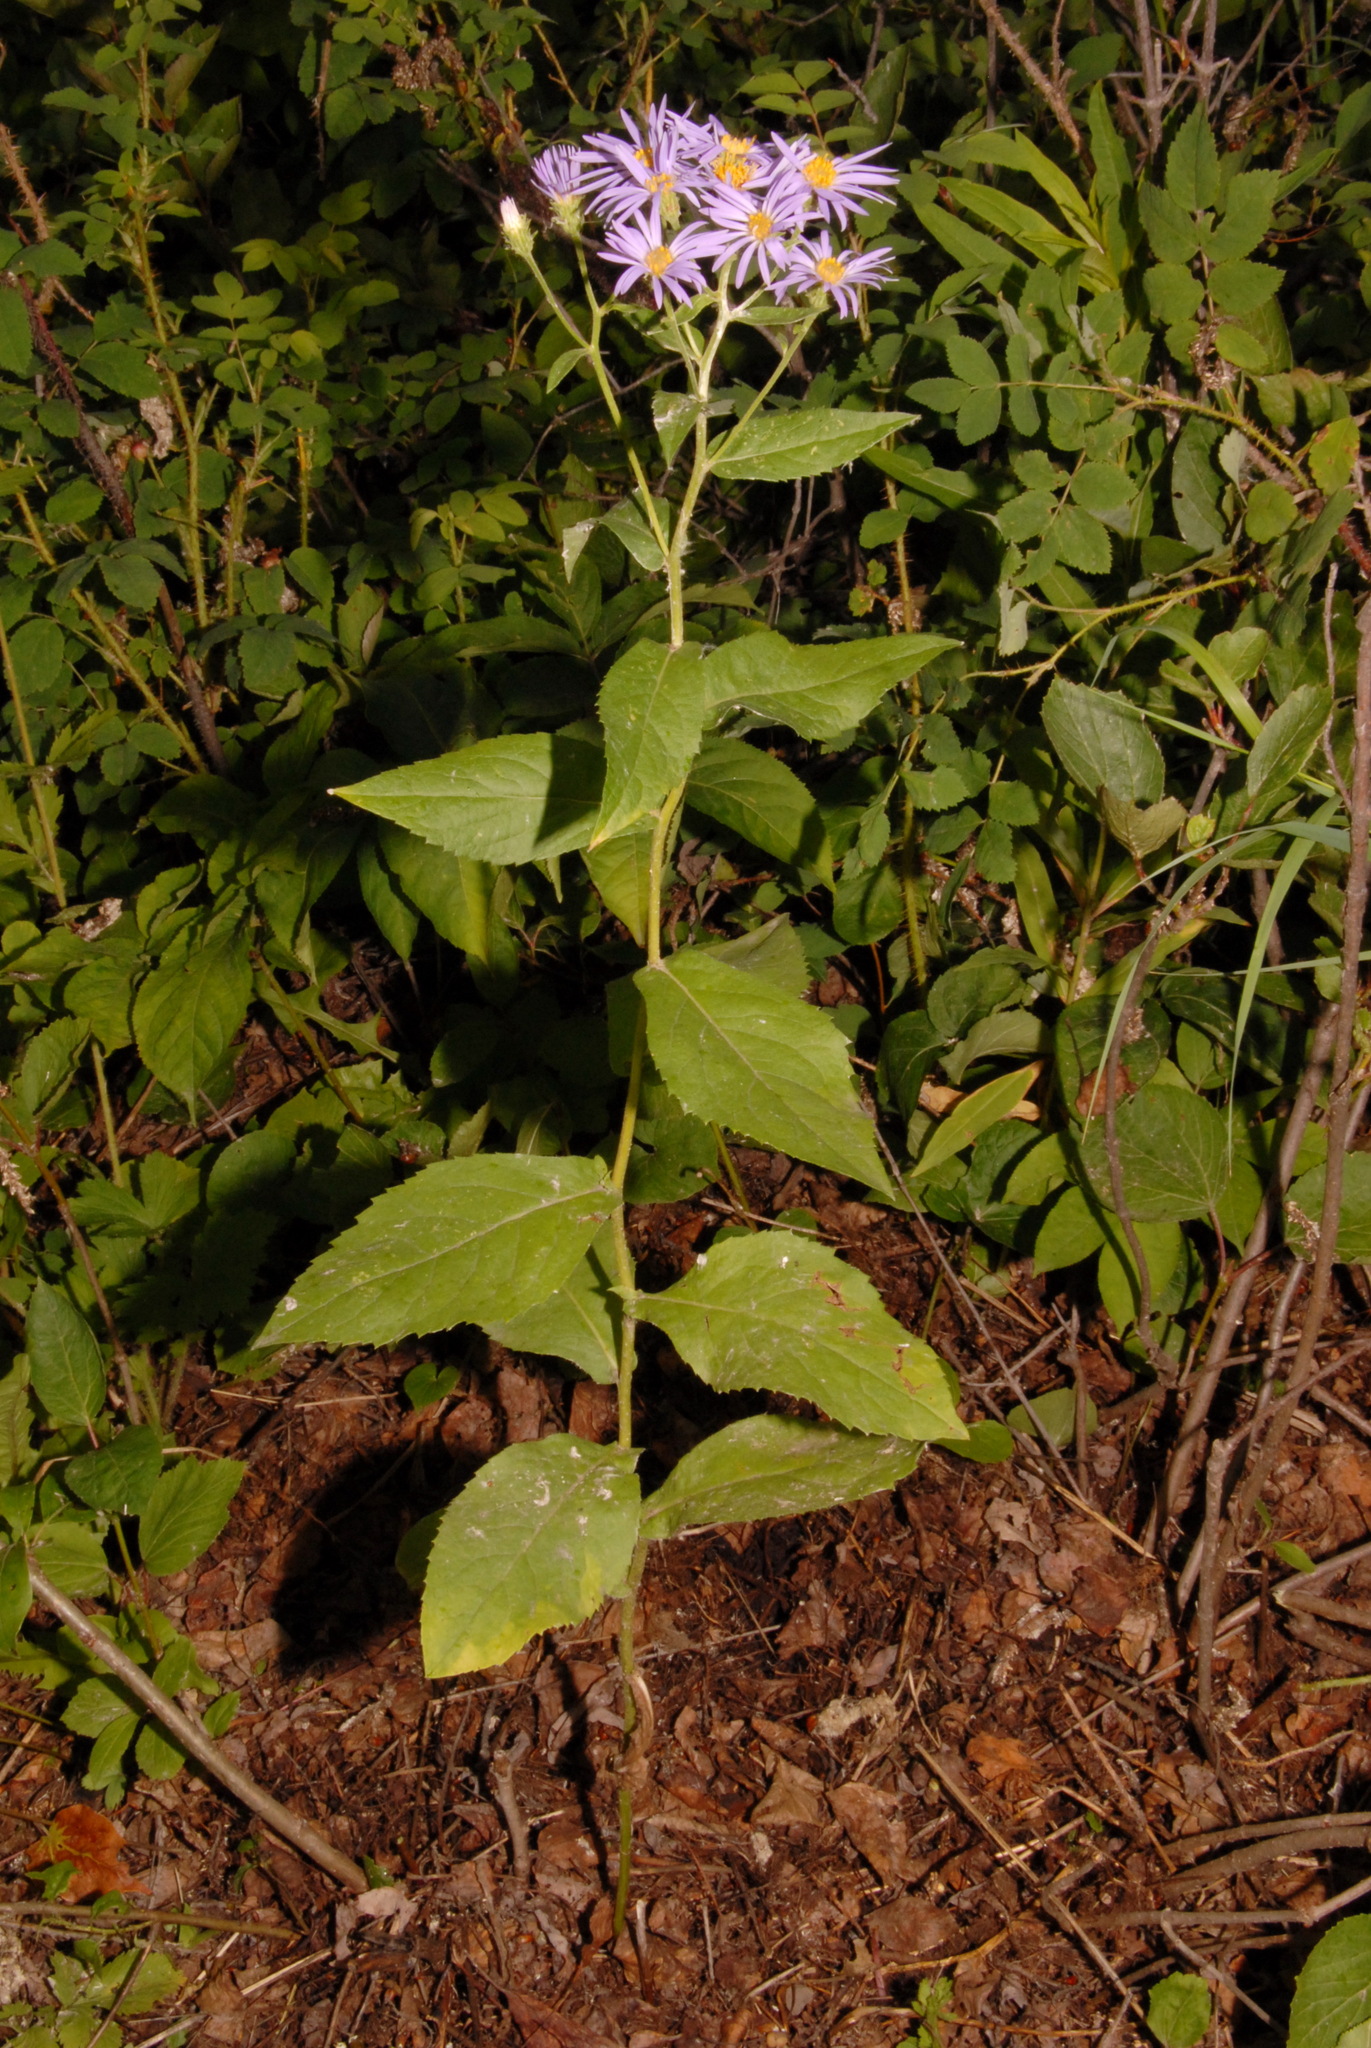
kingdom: Plantae
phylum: Tracheophyta
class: Magnoliopsida
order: Asterales
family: Asteraceae
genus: Eurybia
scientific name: Eurybia conspicua
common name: Showy aster
